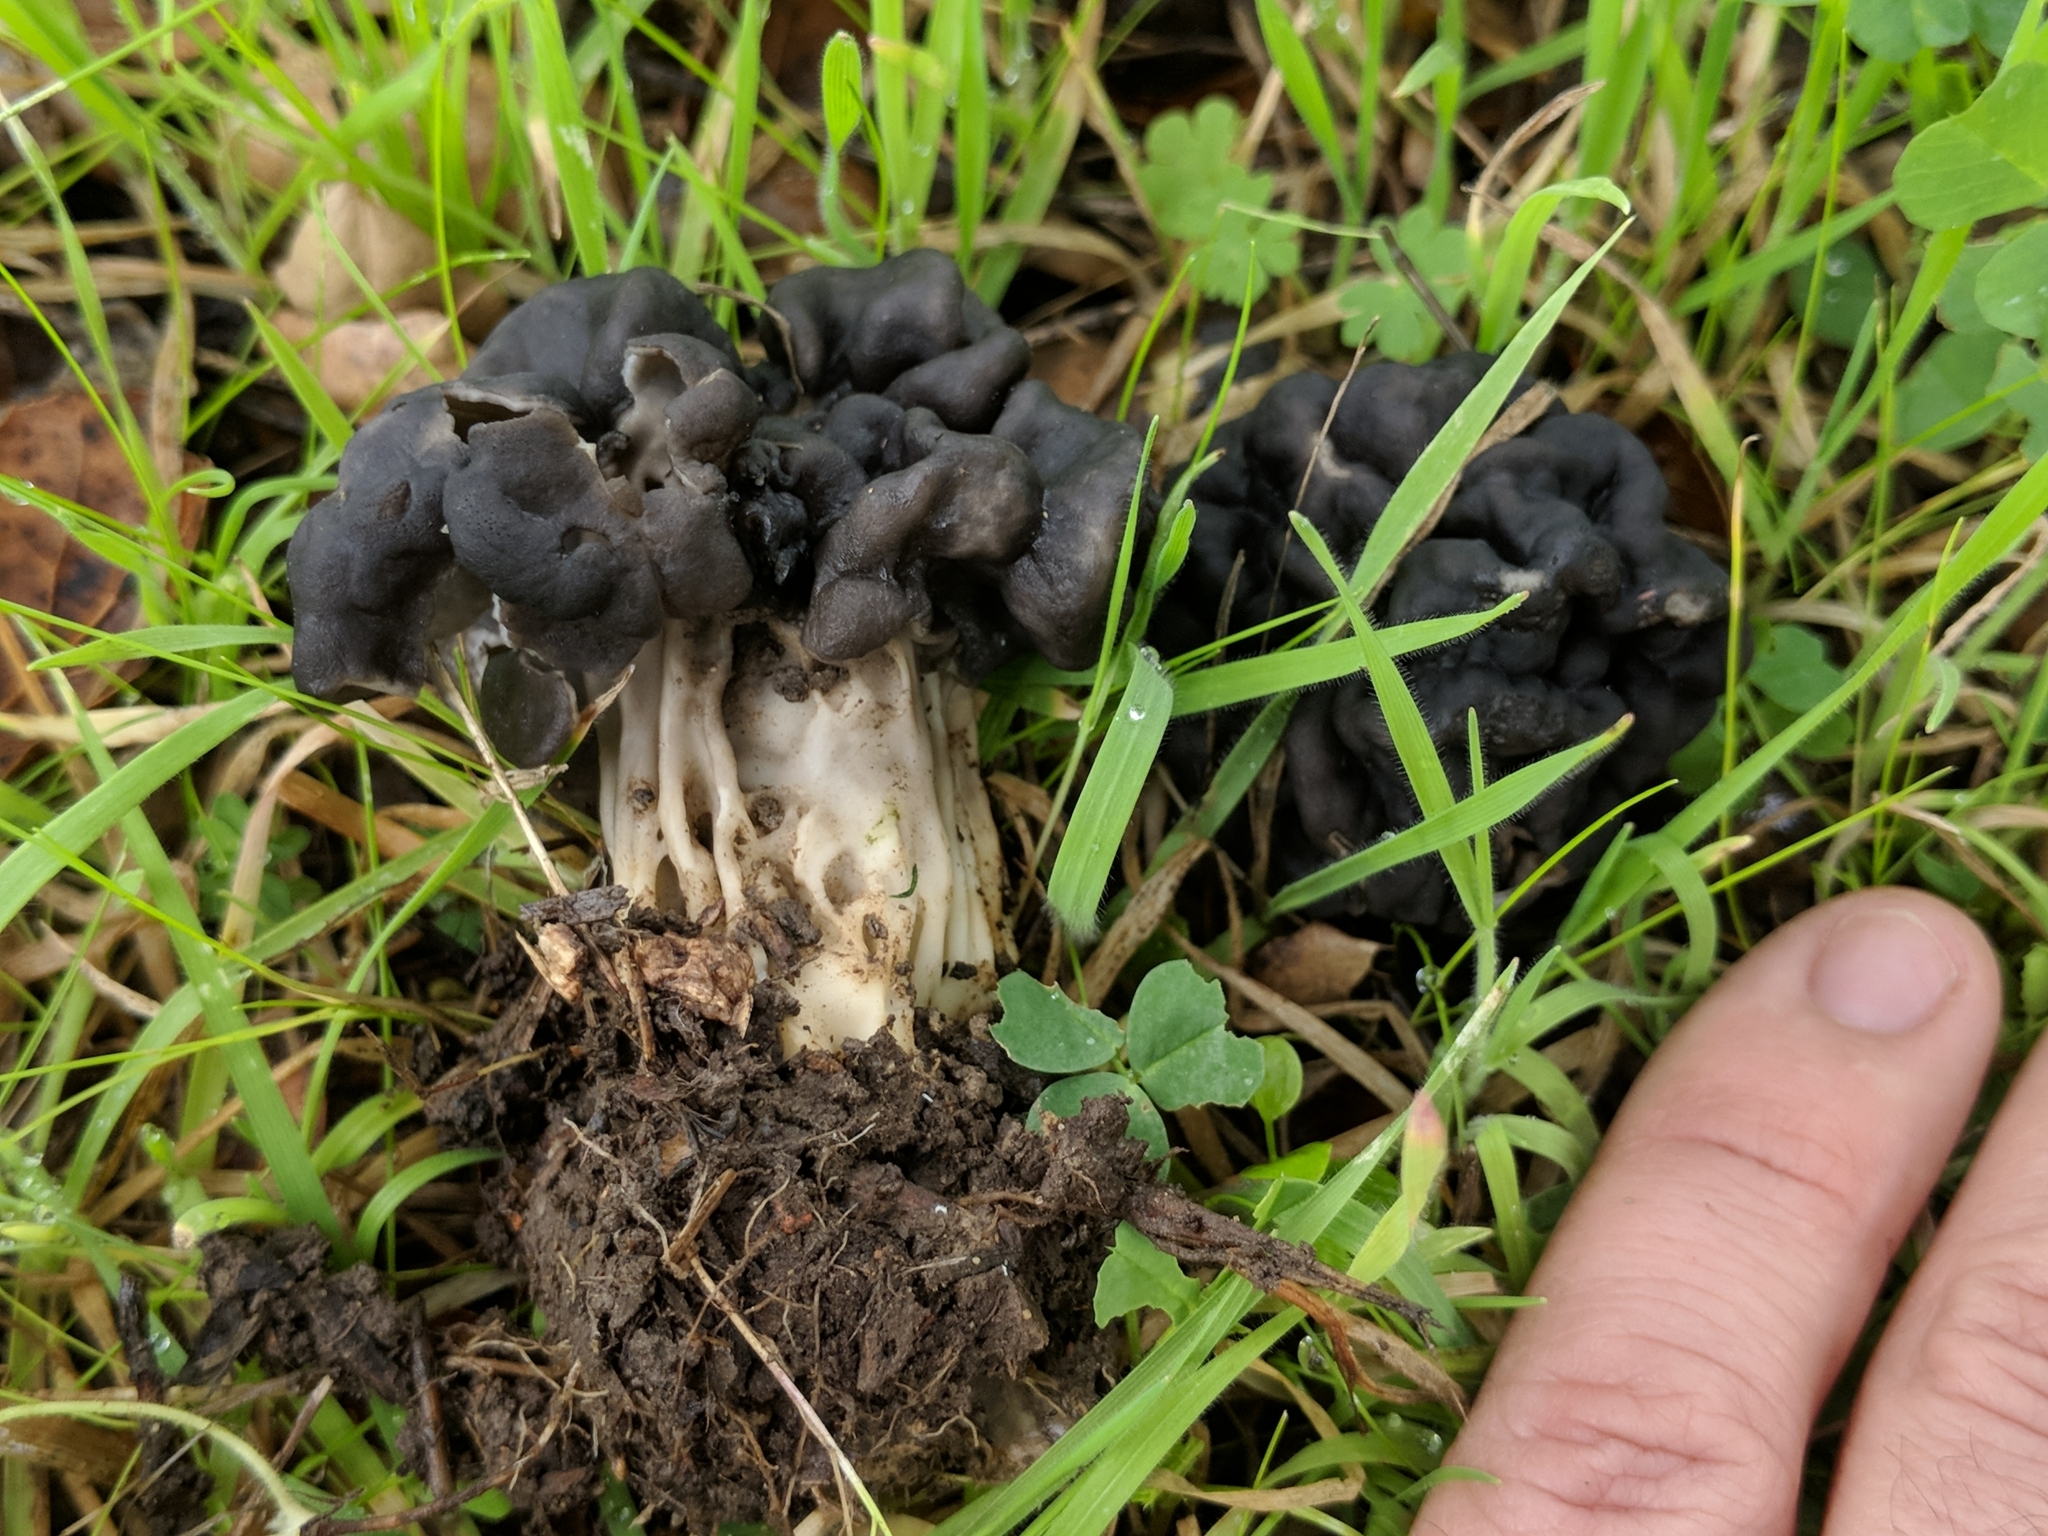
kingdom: Fungi
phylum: Ascomycota
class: Pezizomycetes
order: Pezizales
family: Helvellaceae
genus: Helvella
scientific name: Helvella dryophila
